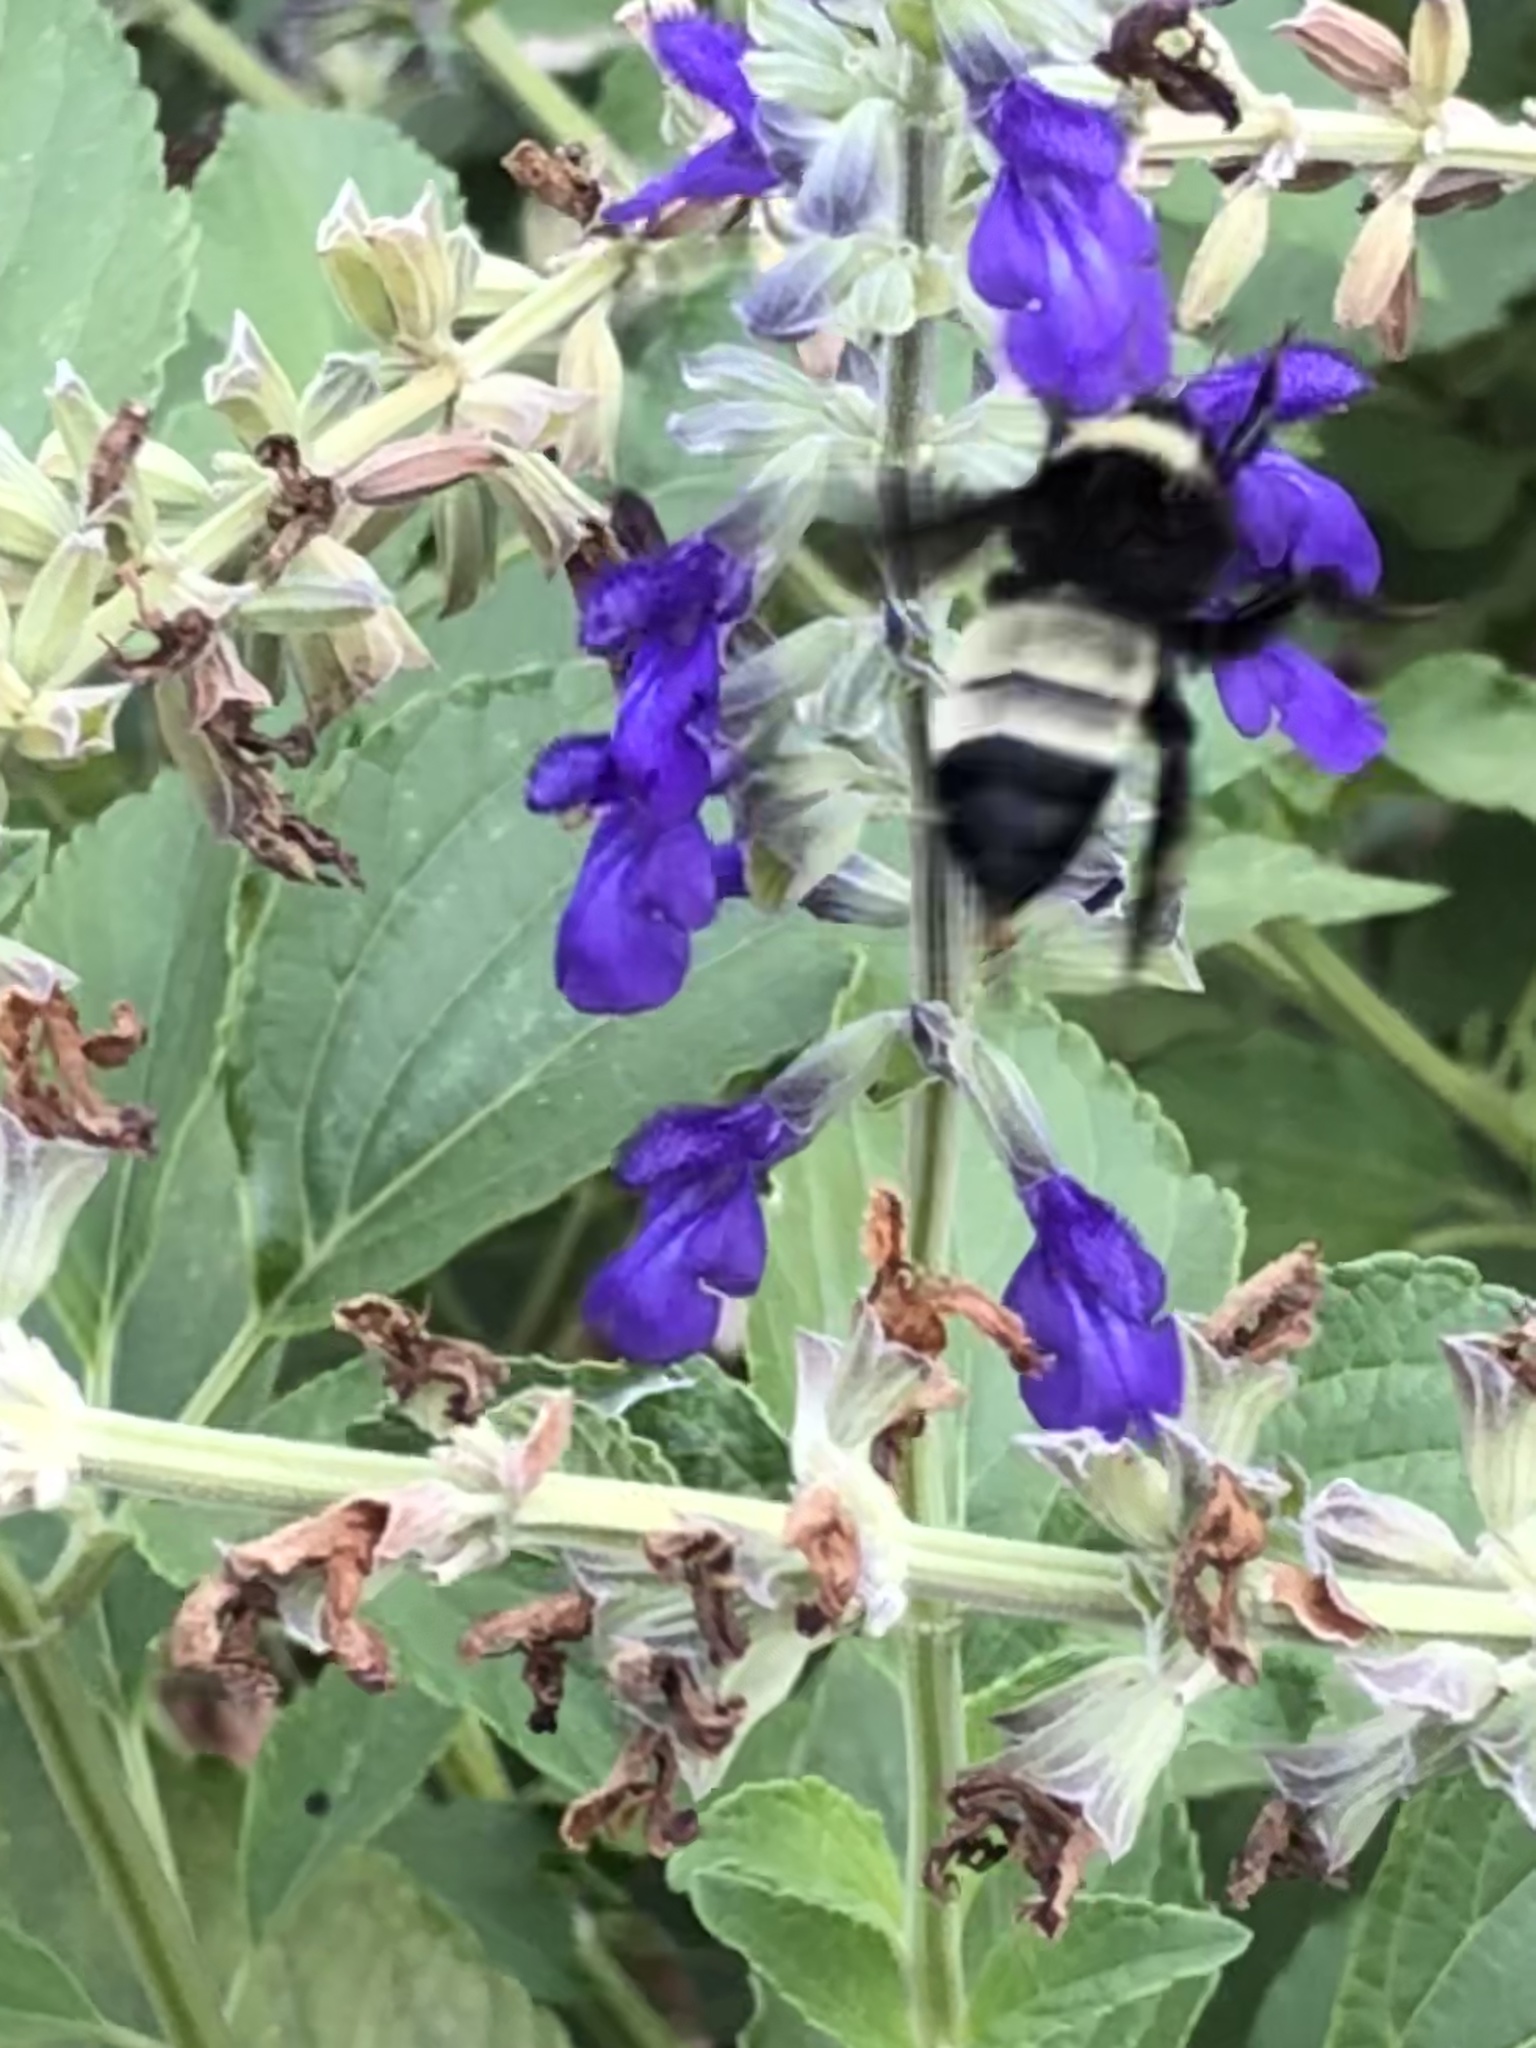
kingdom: Animalia
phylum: Arthropoda
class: Insecta
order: Hymenoptera
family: Apidae
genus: Bombus
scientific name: Bombus pensylvanicus
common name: Bumble bee
